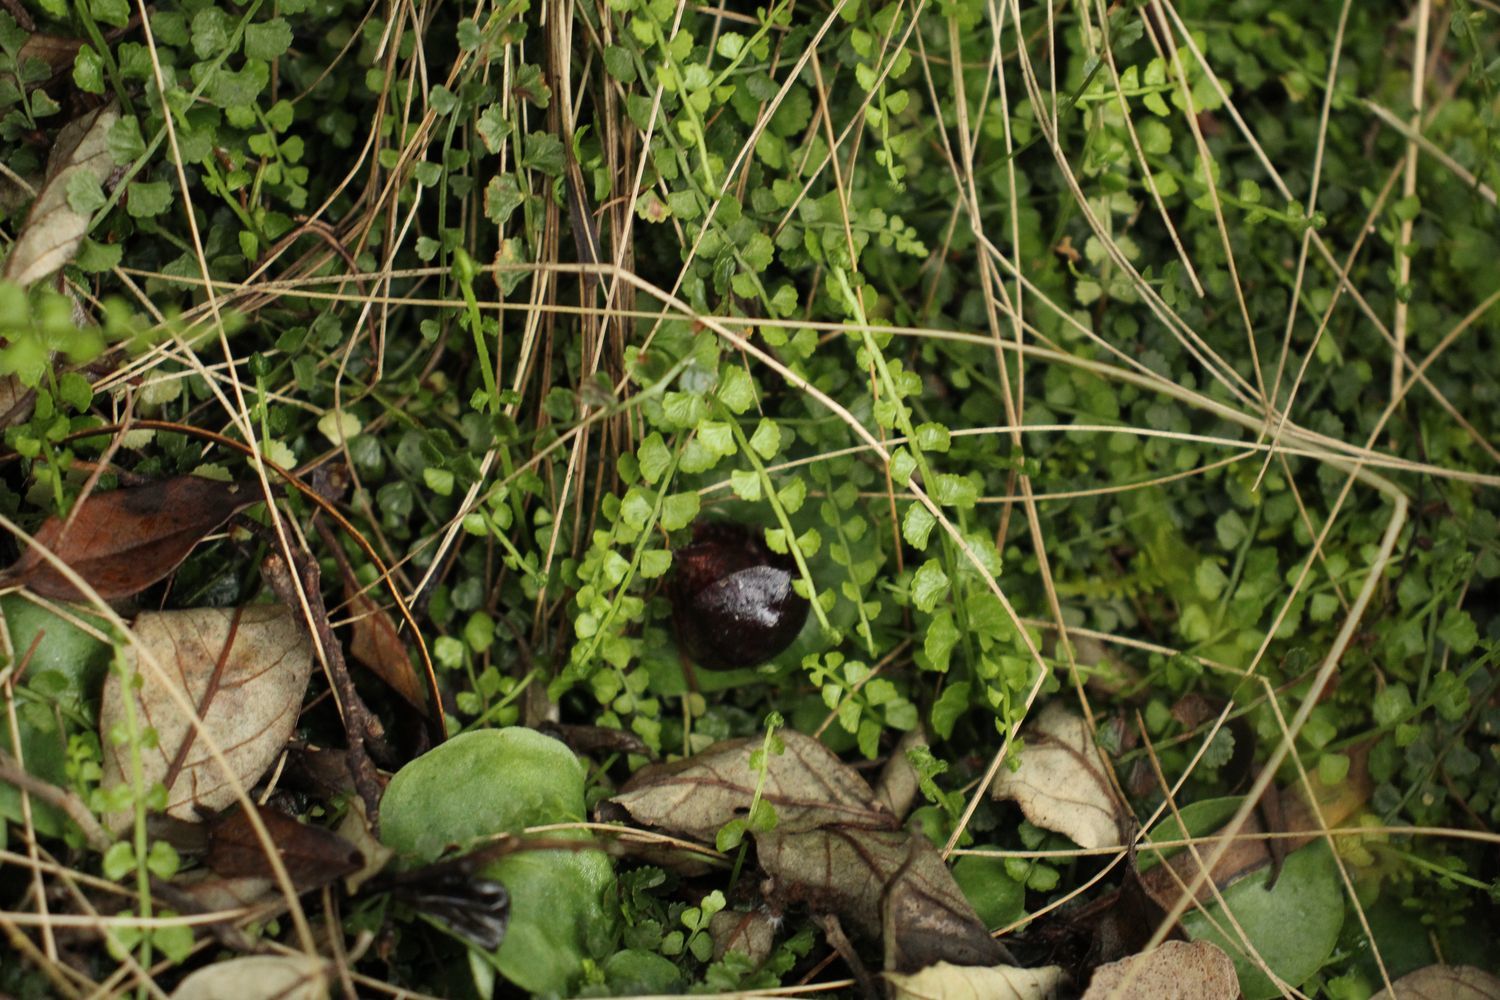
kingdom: Plantae
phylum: Tracheophyta
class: Liliopsida
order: Asparagales
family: Orchidaceae
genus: Corybas
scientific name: Corybas recurvus
